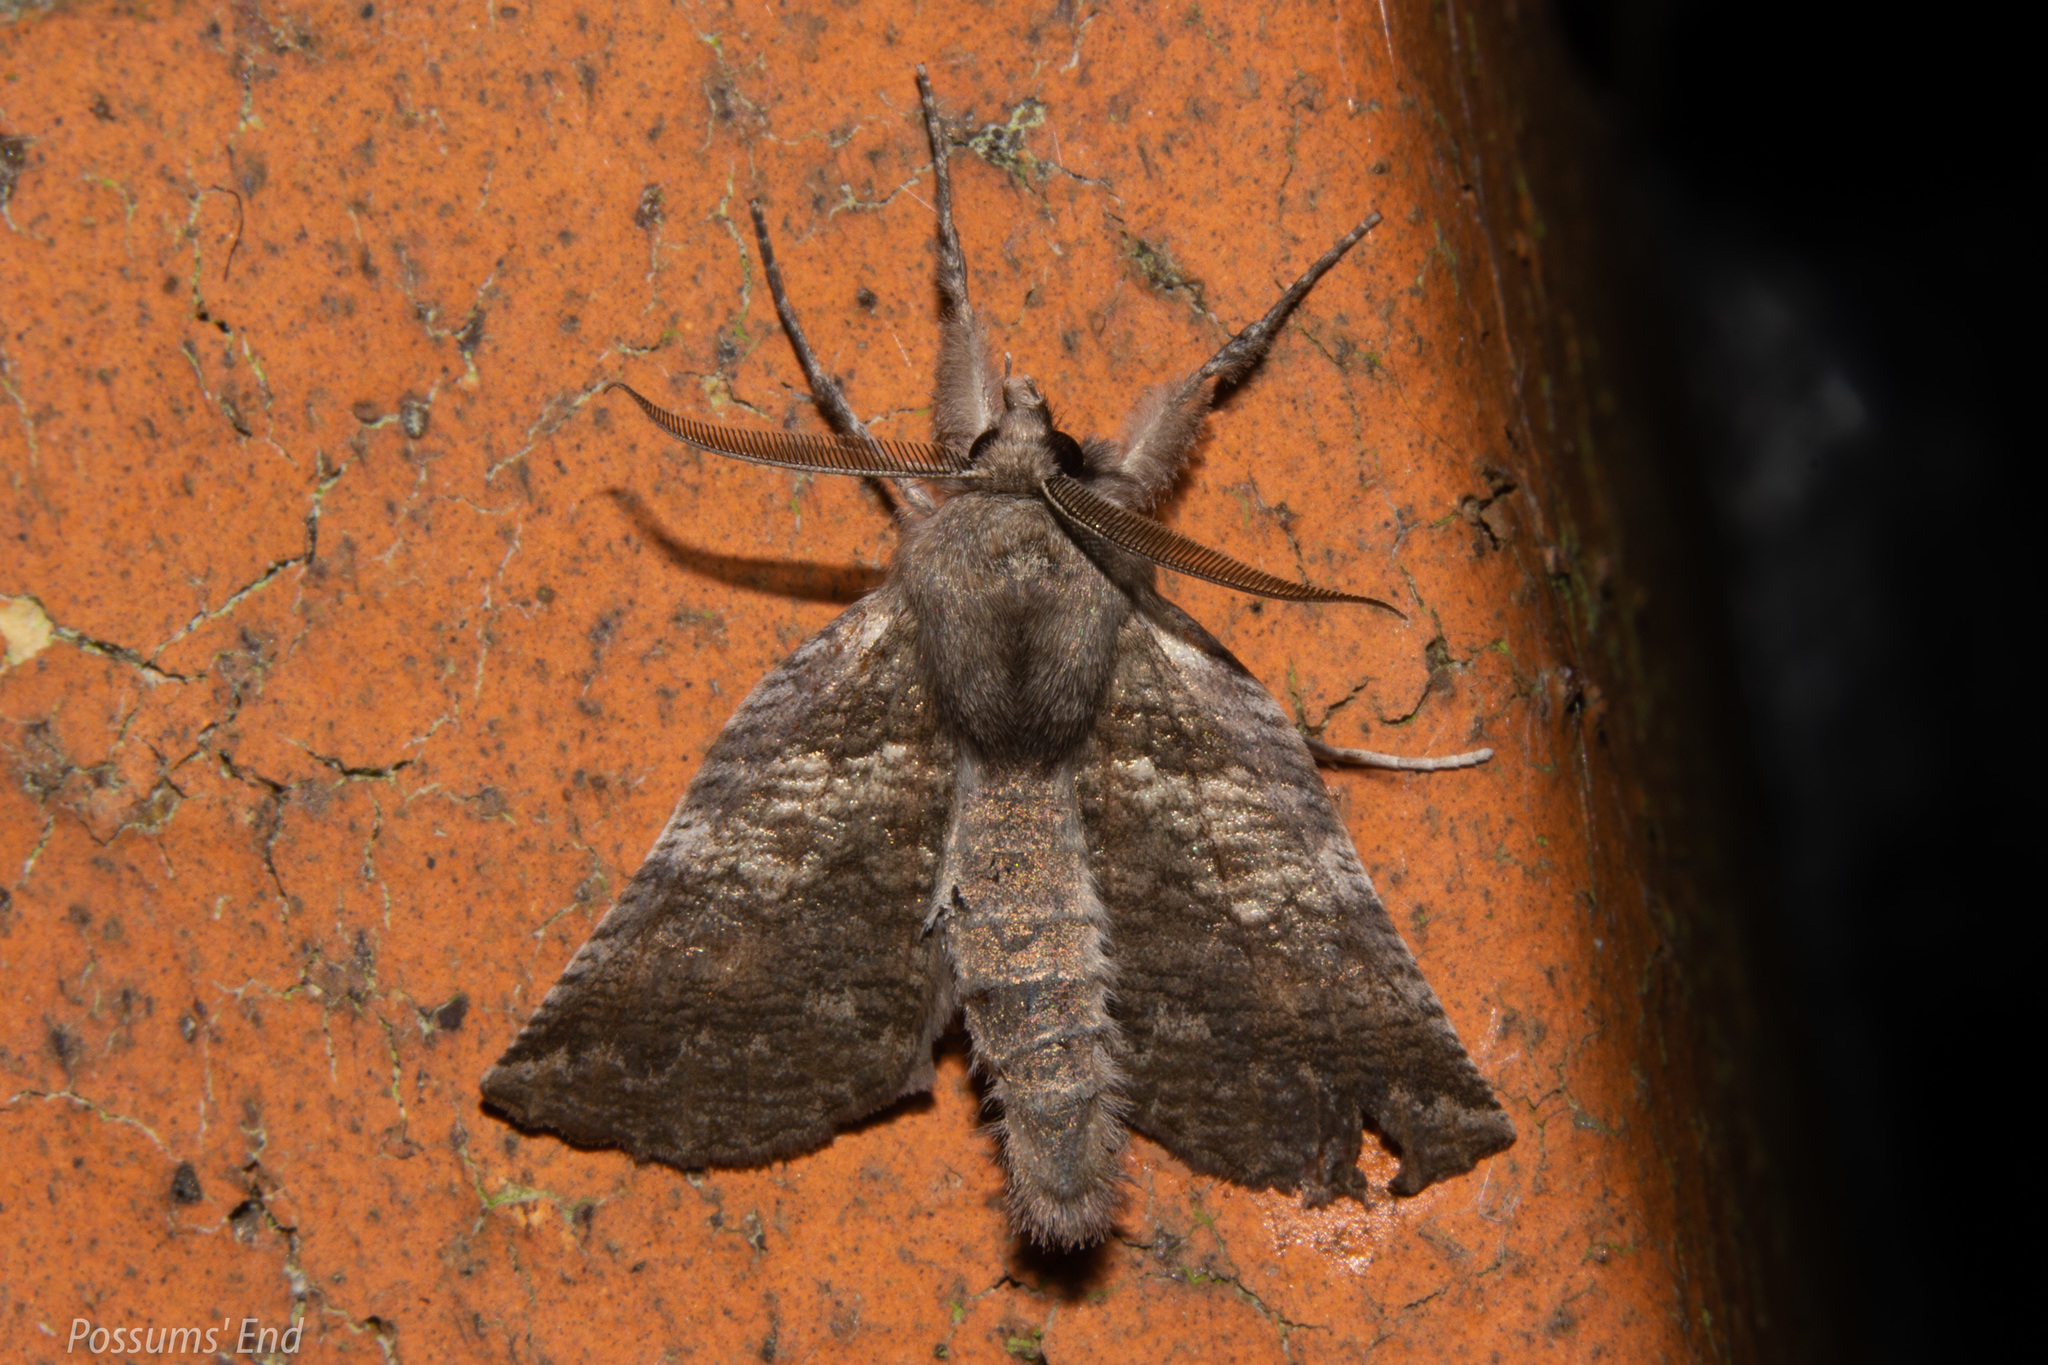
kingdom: Animalia
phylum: Arthropoda
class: Insecta
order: Lepidoptera
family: Geometridae
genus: Declana
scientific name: Declana
